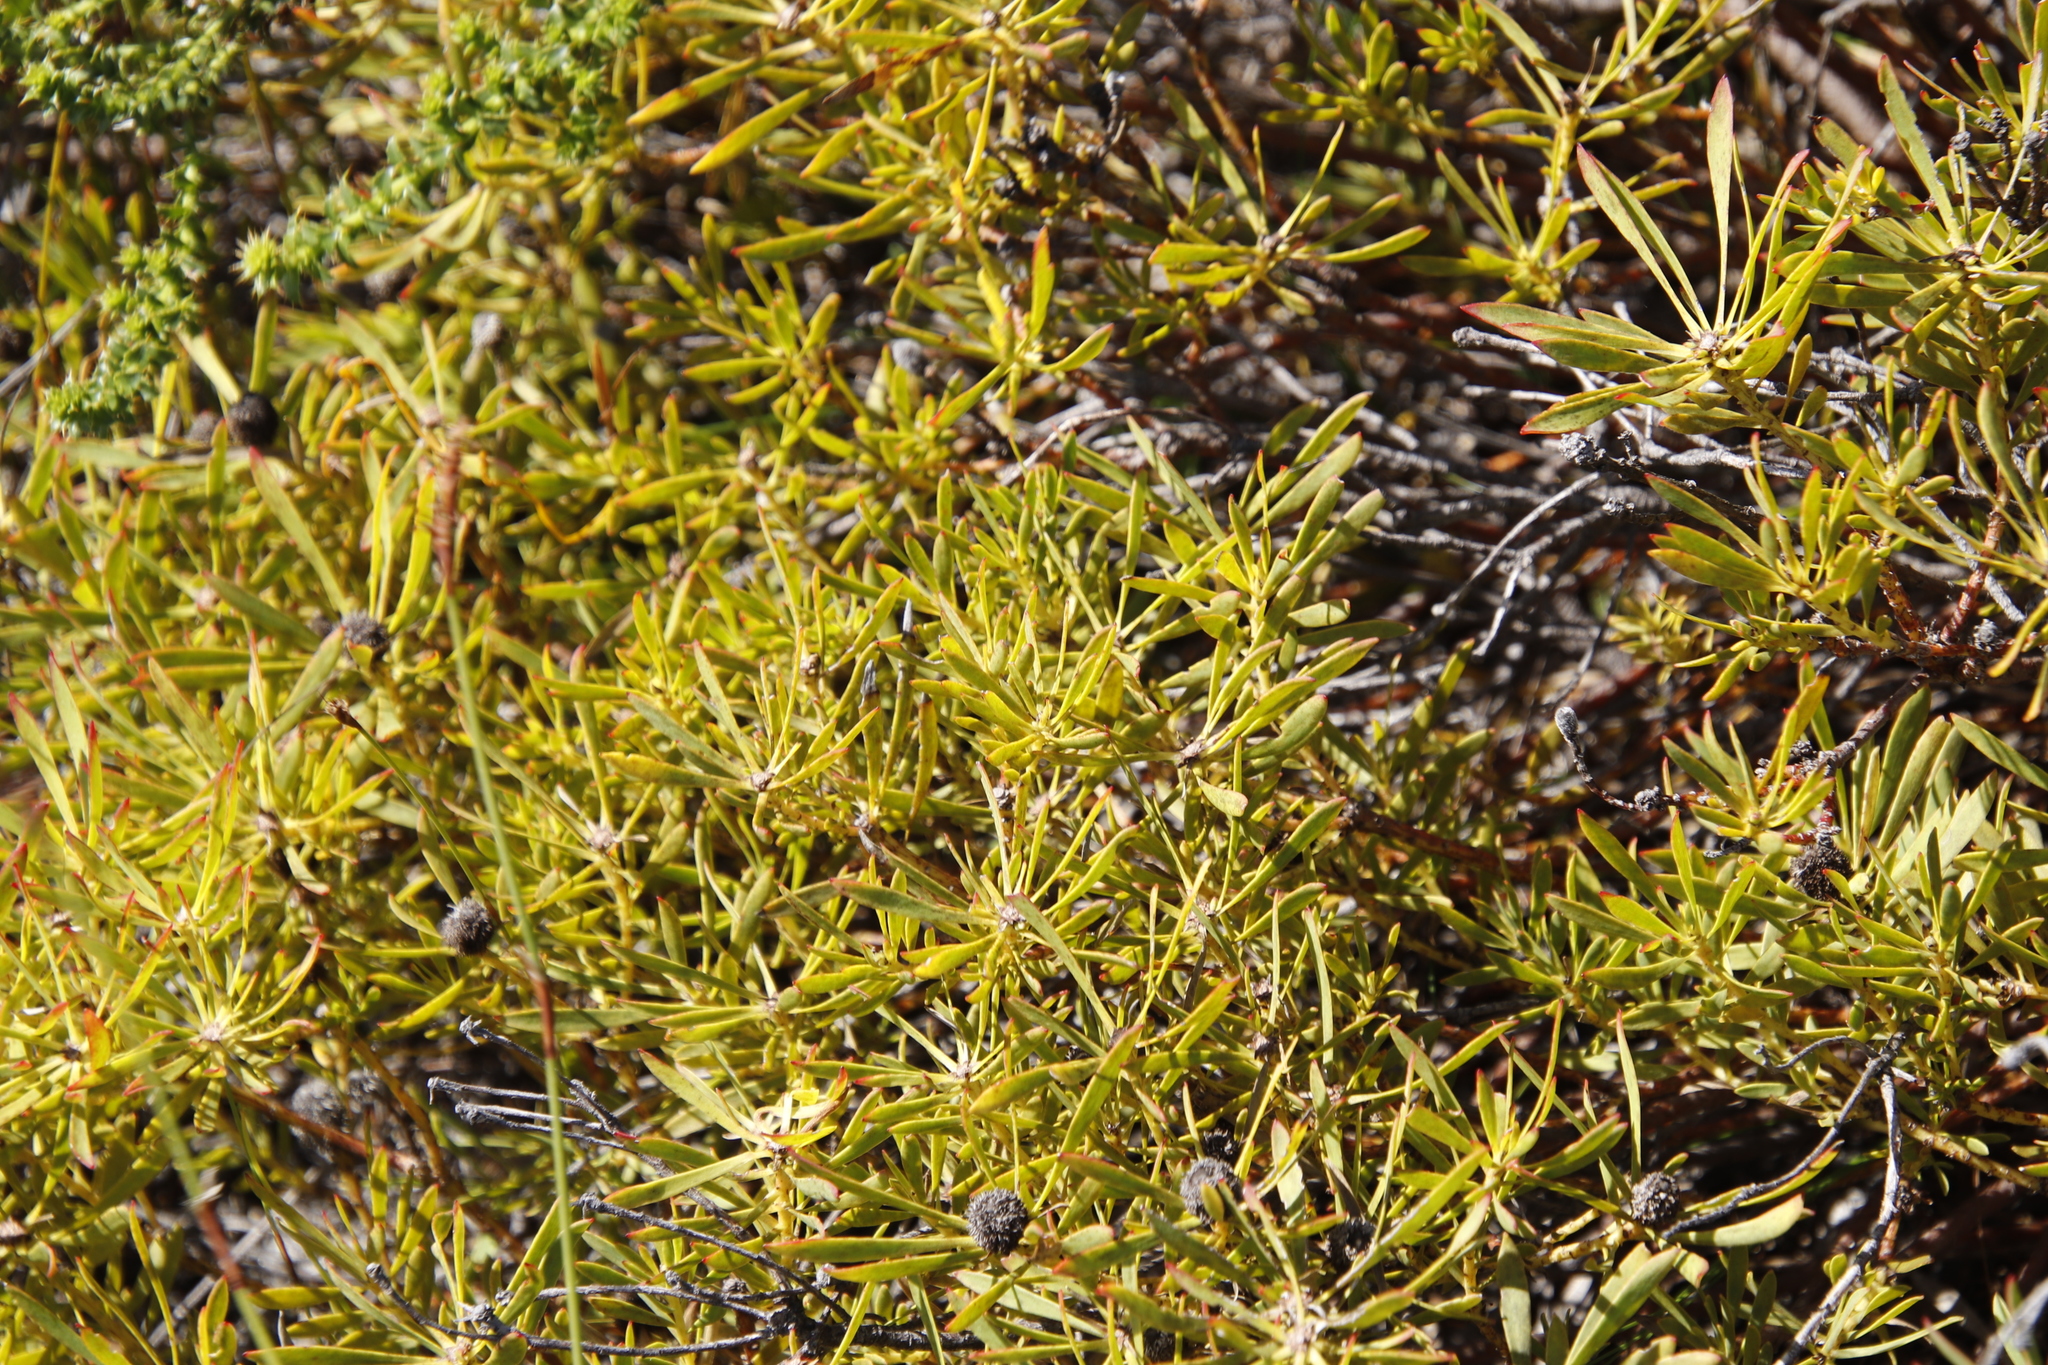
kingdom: Plantae
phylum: Tracheophyta
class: Magnoliopsida
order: Proteales
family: Proteaceae
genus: Leucadendron
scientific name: Leucadendron salignum
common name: Common sunshine conebush
